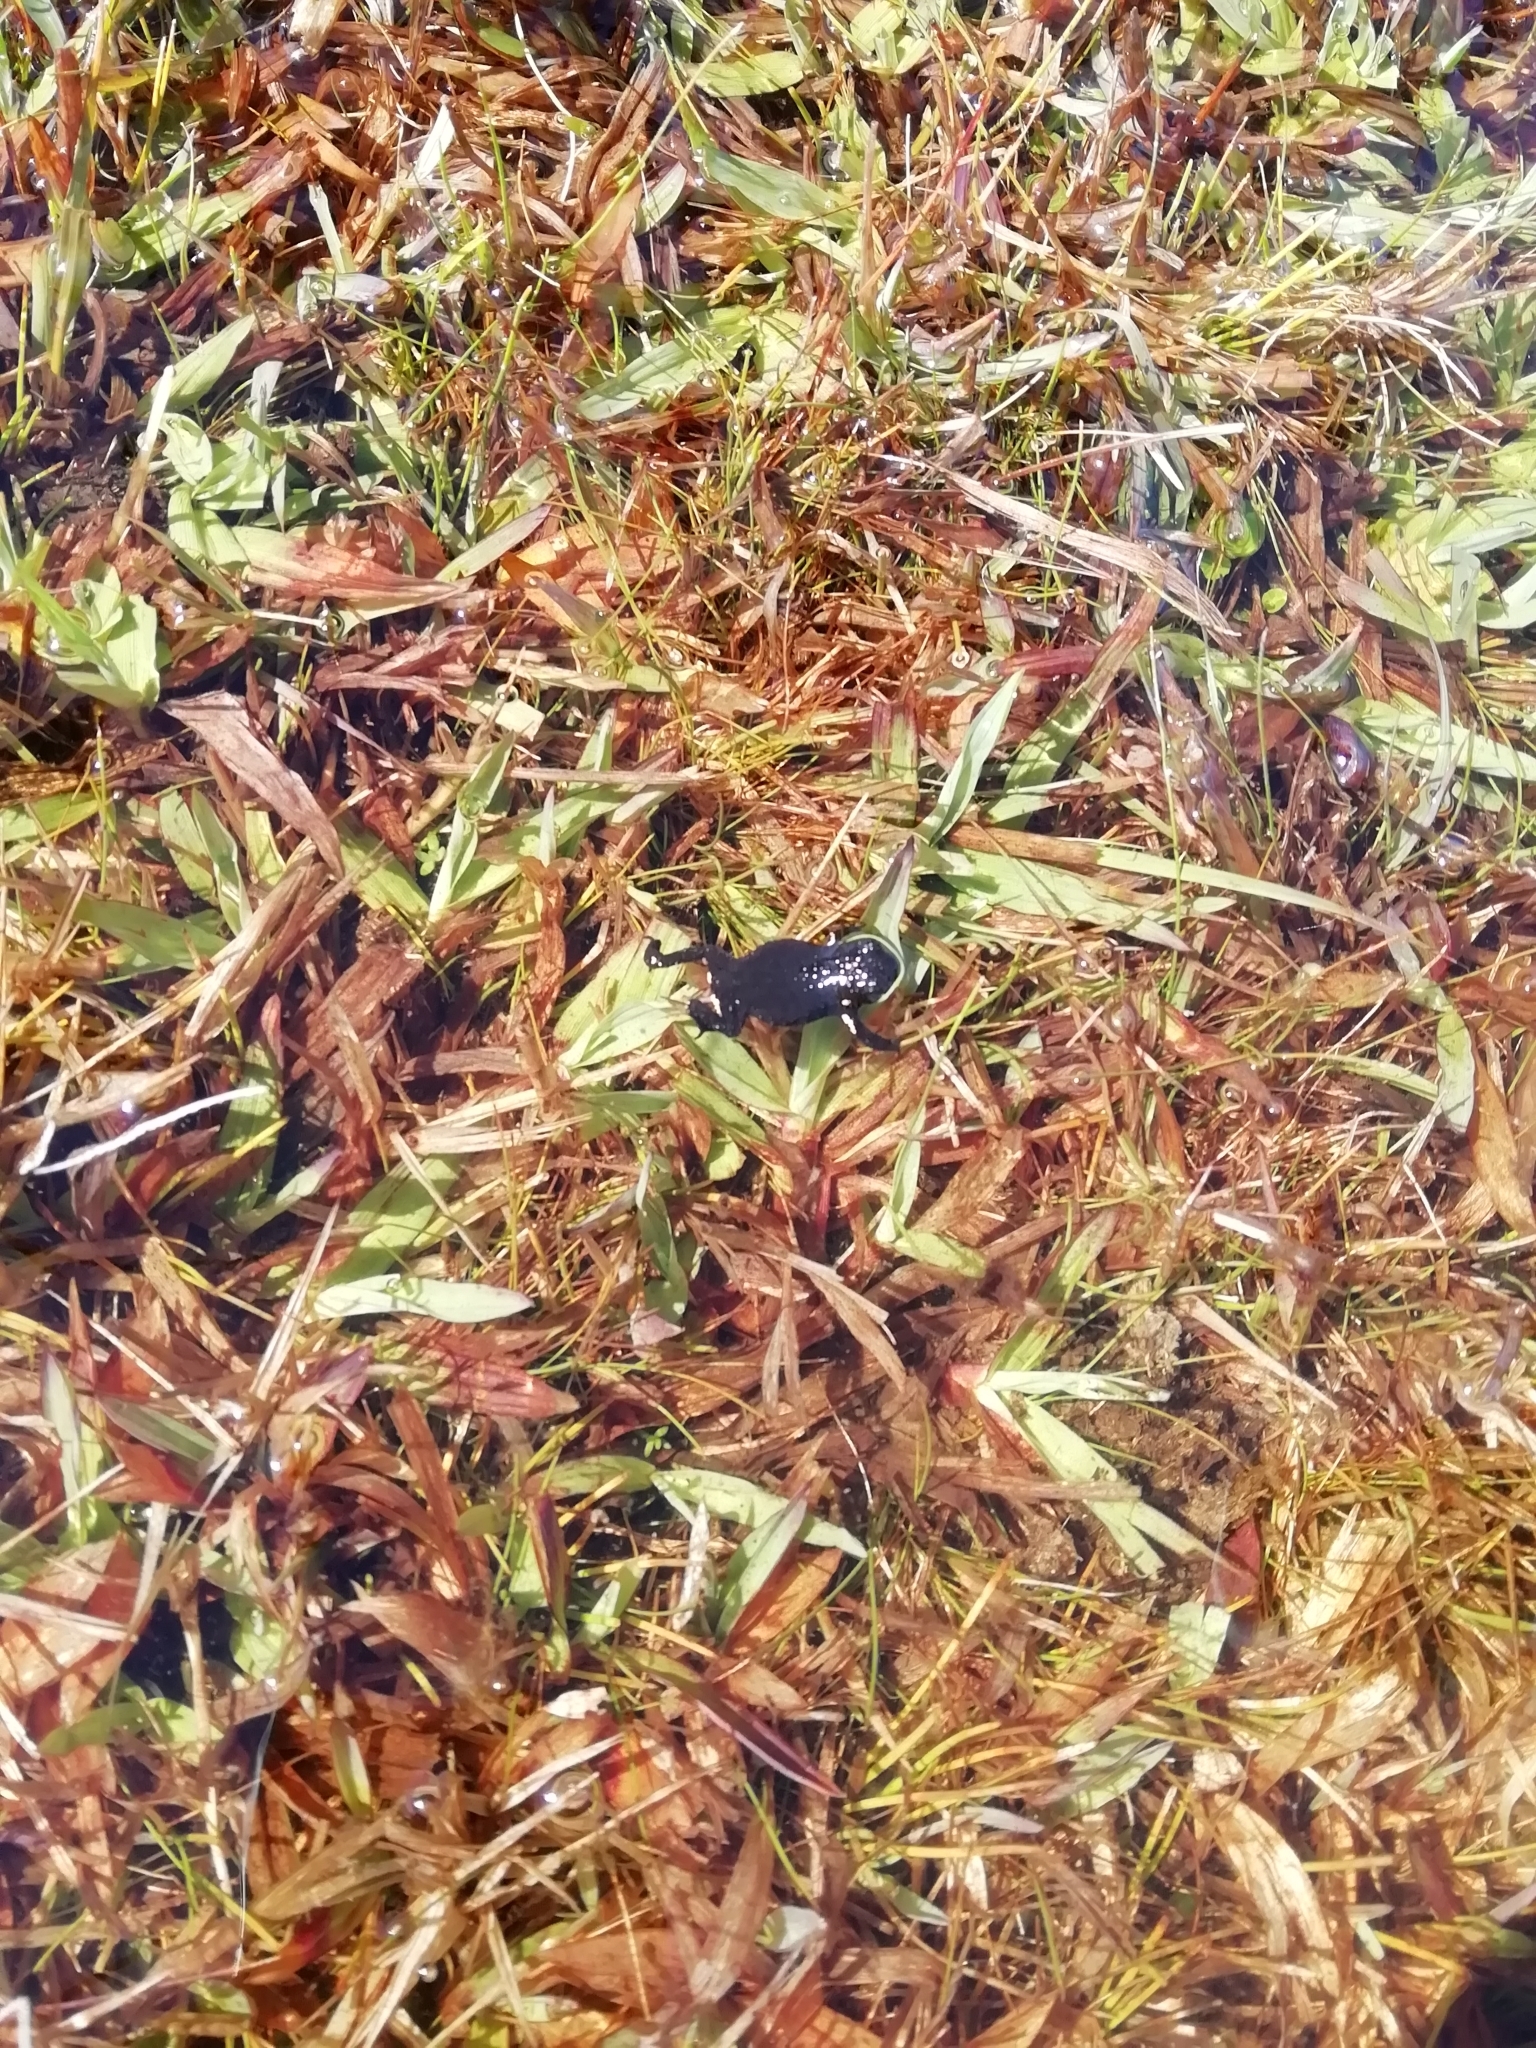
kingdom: Animalia
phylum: Chordata
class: Amphibia
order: Anura
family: Bufonidae
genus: Melanophryniscus
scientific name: Melanophryniscus montevidensis
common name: Montevideo redbelly toad
